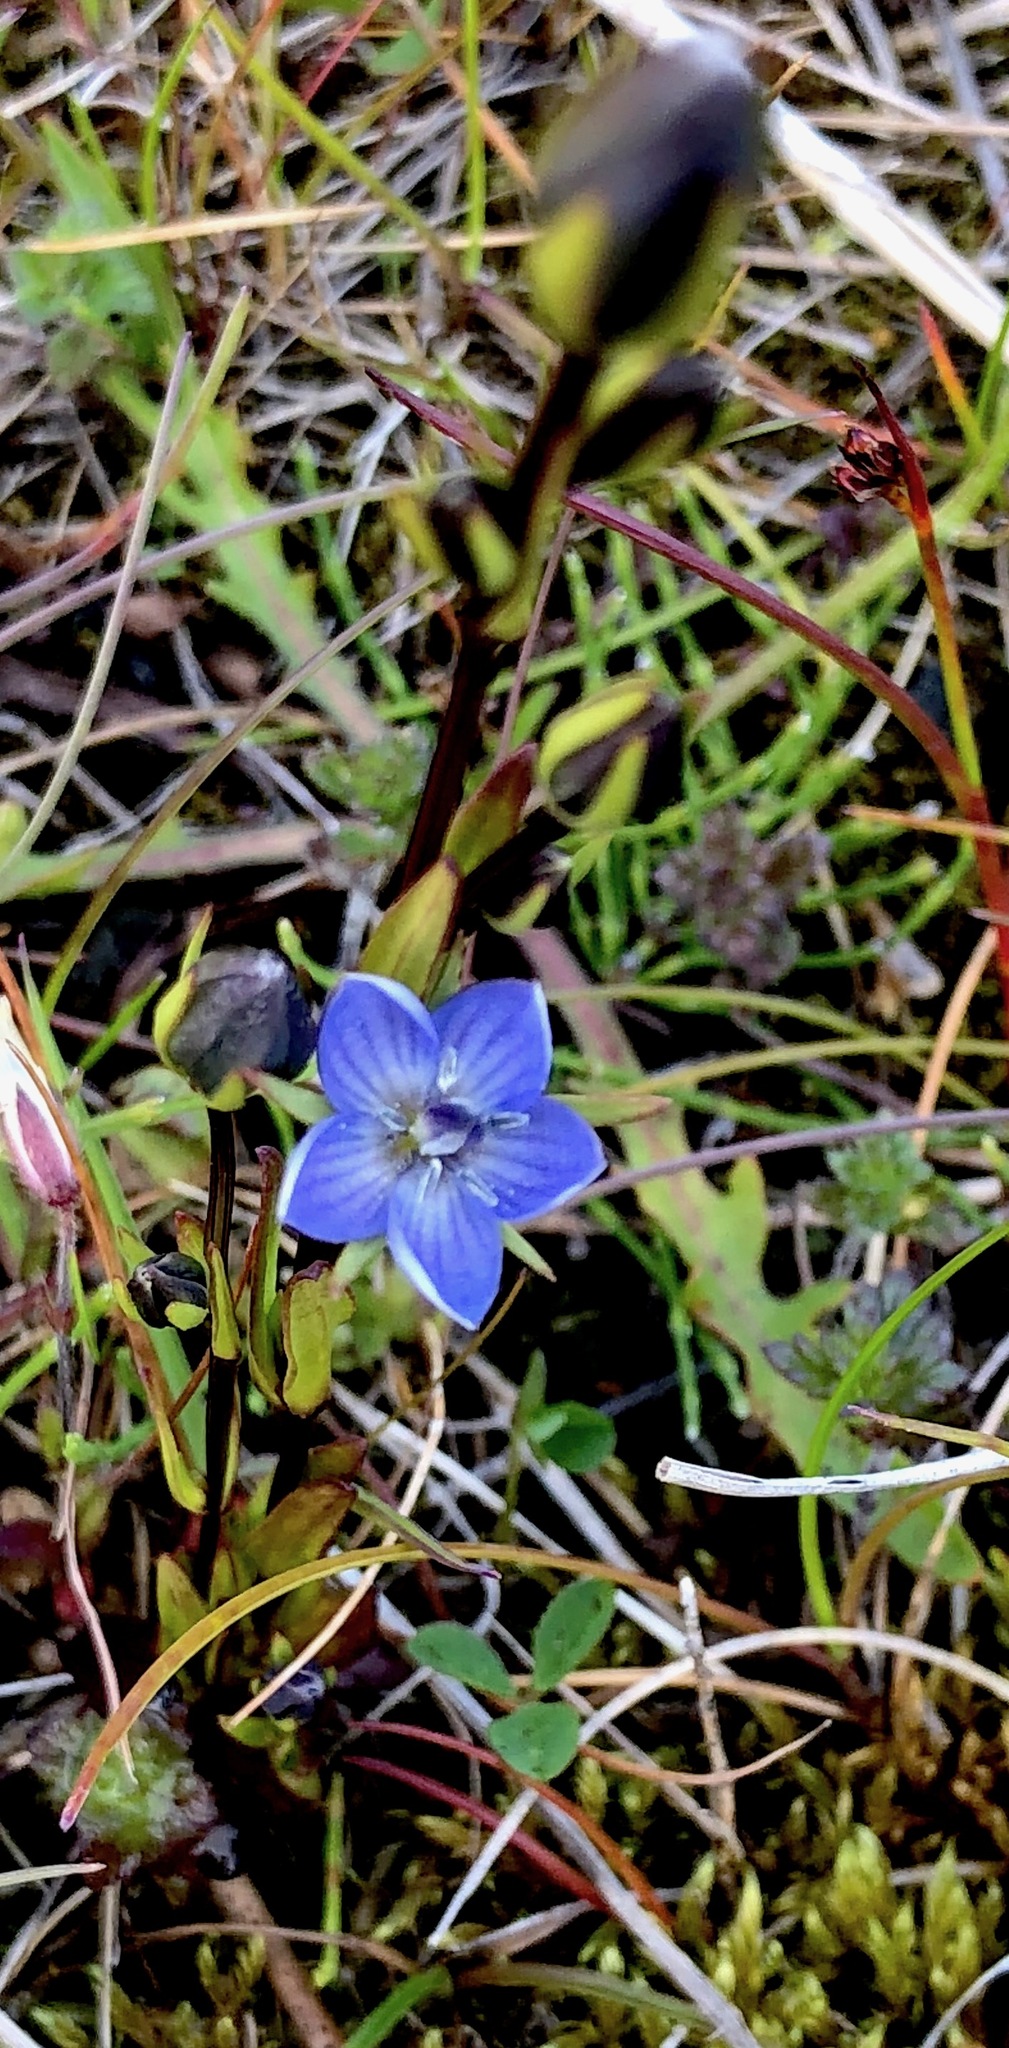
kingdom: Plantae
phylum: Tracheophyta
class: Magnoliopsida
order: Gentianales
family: Gentianaceae
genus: Lomatogonium
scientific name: Lomatogonium rotatum
